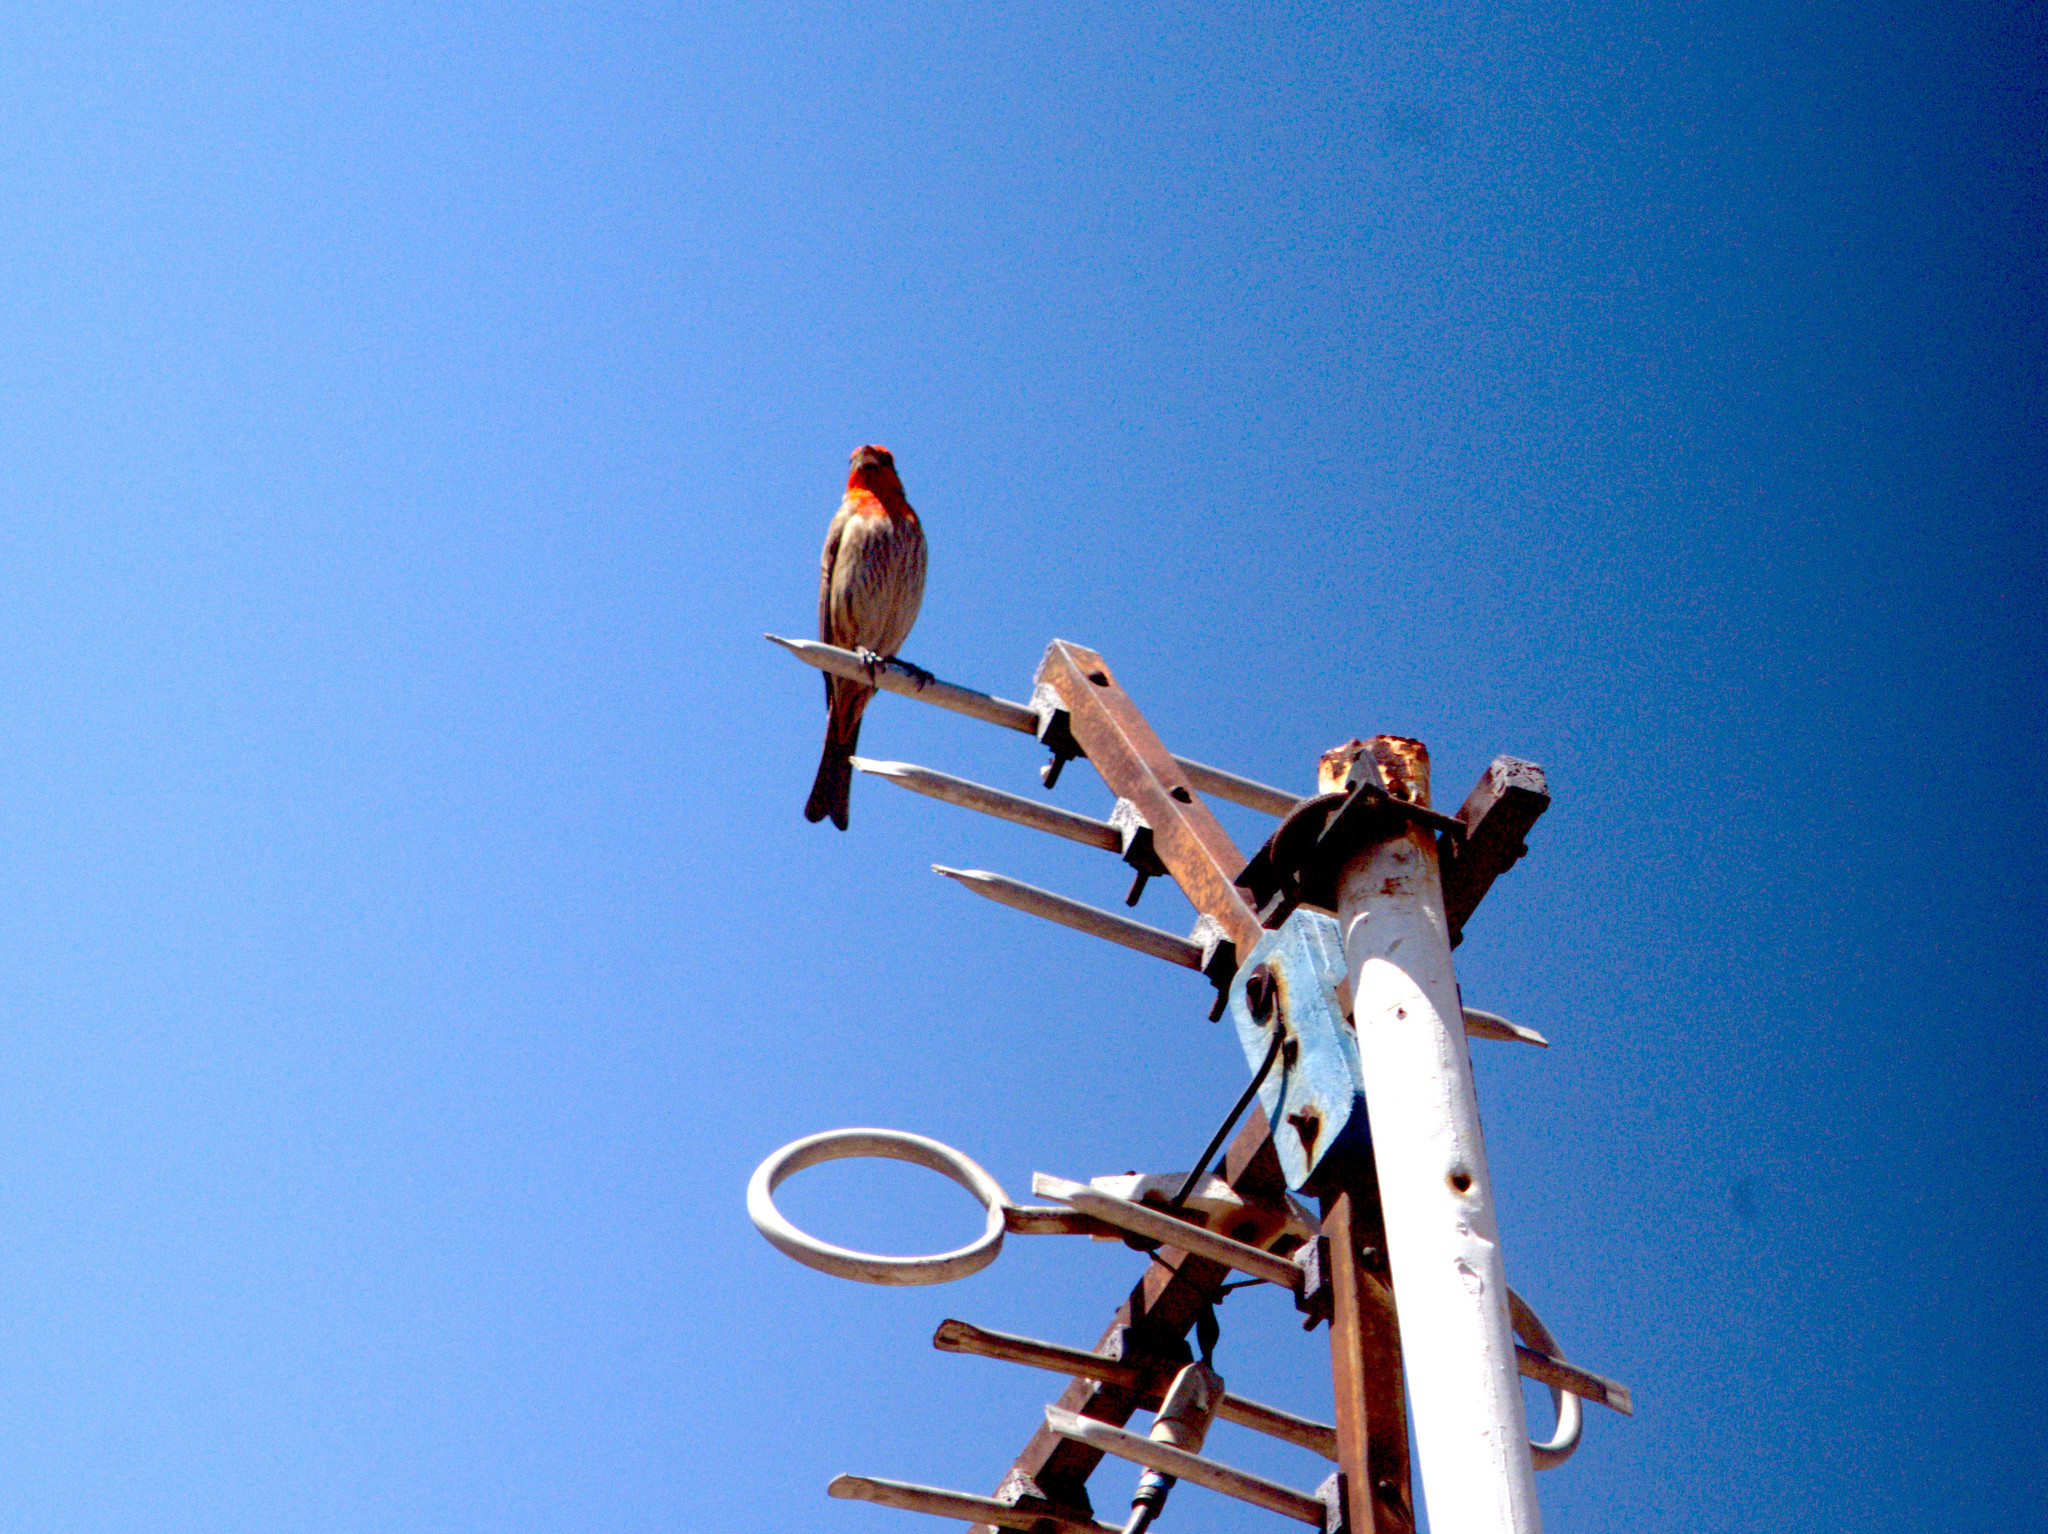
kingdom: Animalia
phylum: Chordata
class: Aves
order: Passeriformes
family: Fringillidae
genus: Haemorhous
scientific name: Haemorhous mexicanus
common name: House finch
